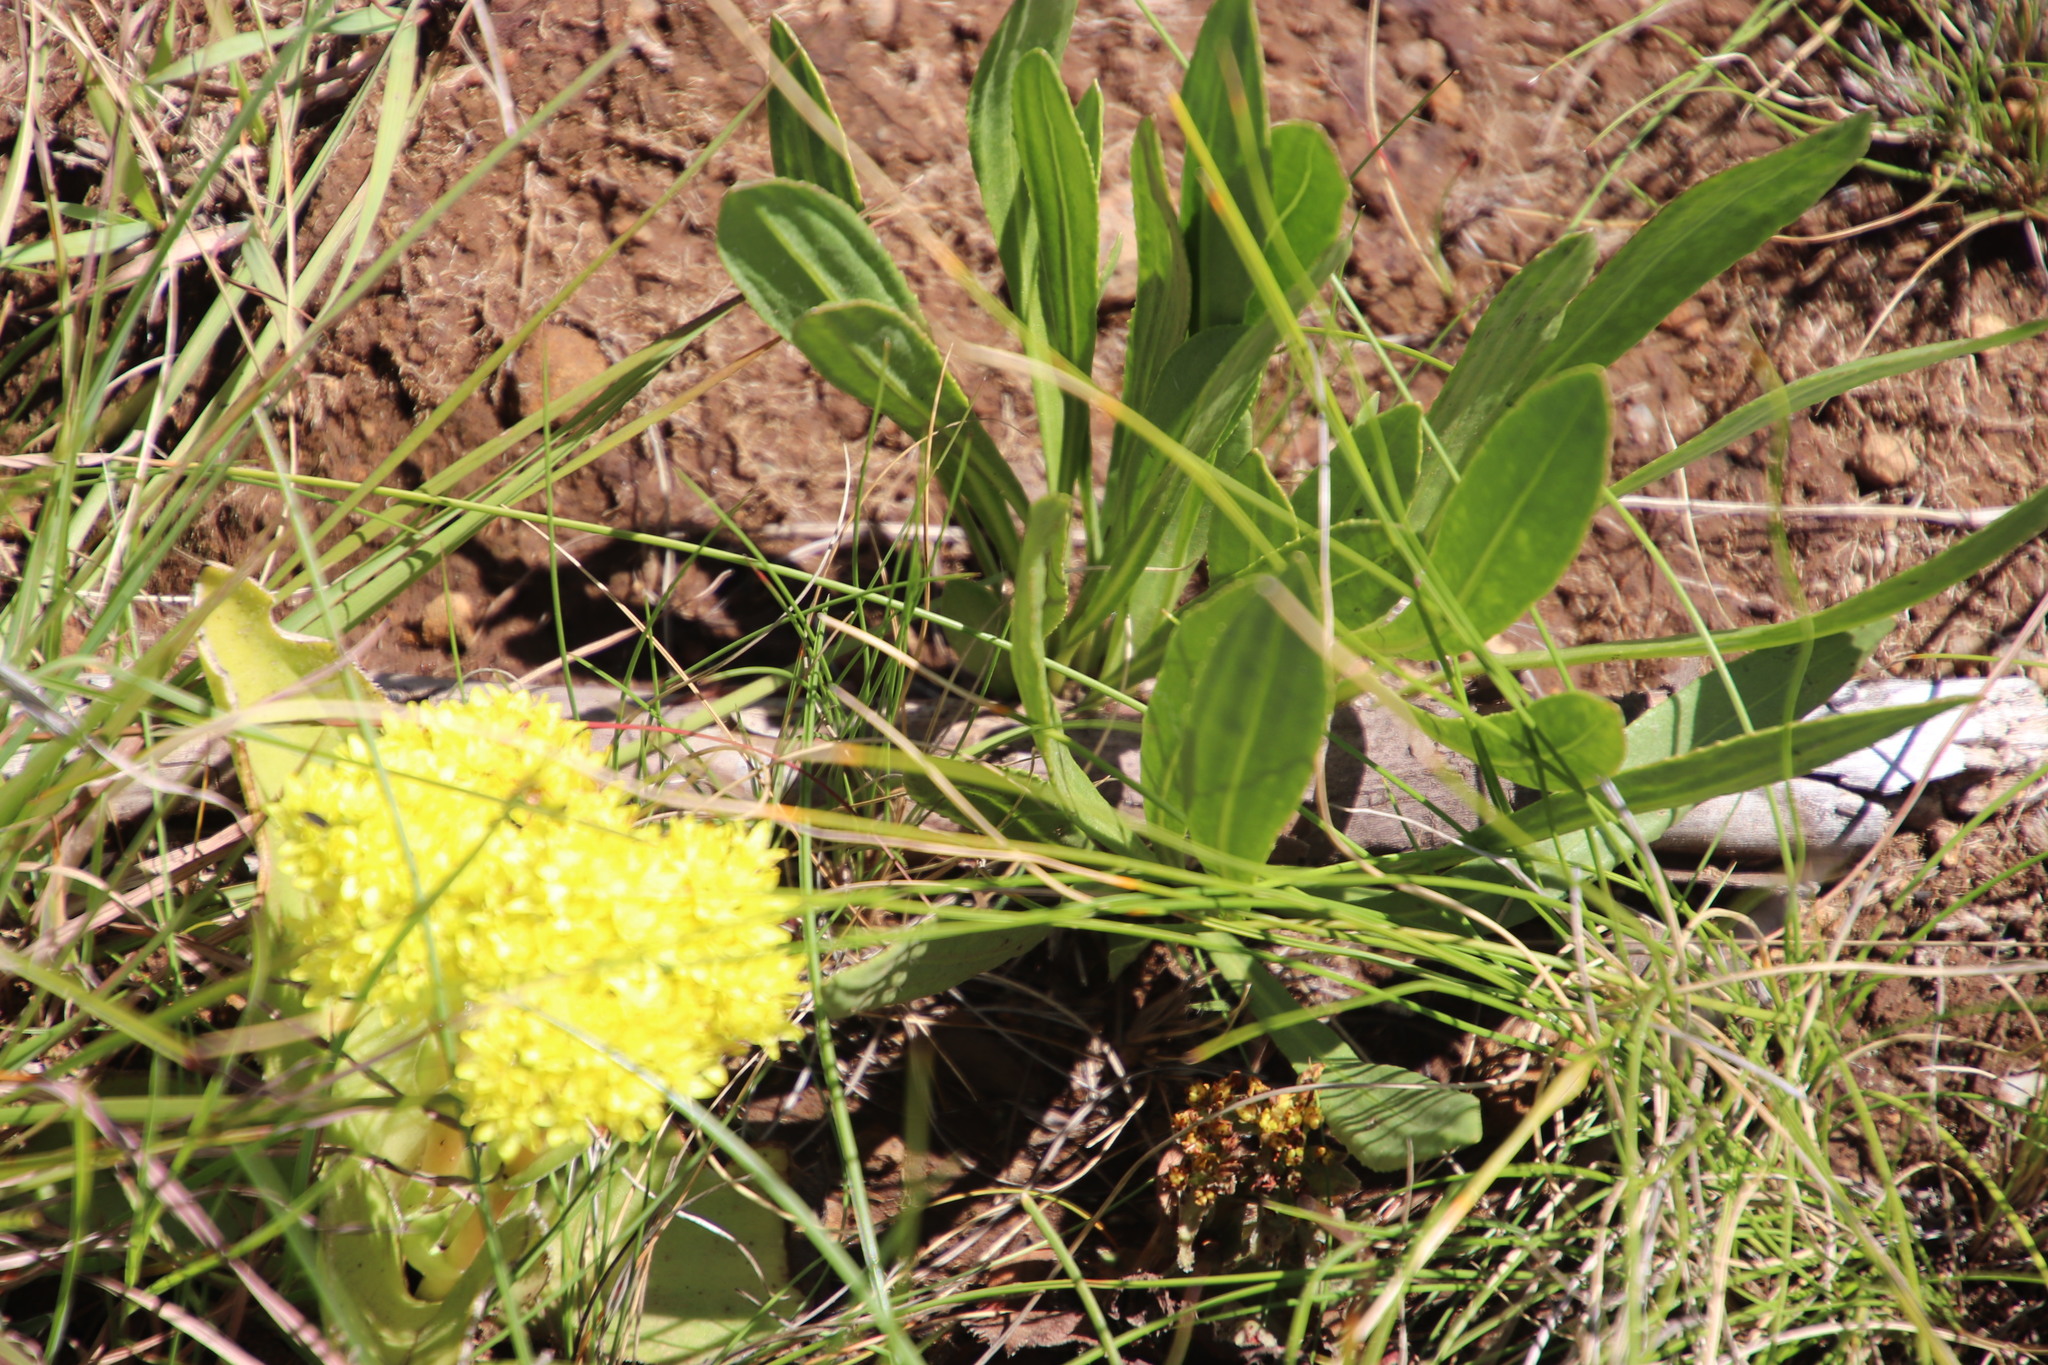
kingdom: Plantae
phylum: Tracheophyta
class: Magnoliopsida
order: Saxifragales
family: Crassulaceae
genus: Crassula
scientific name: Crassula vaginata
